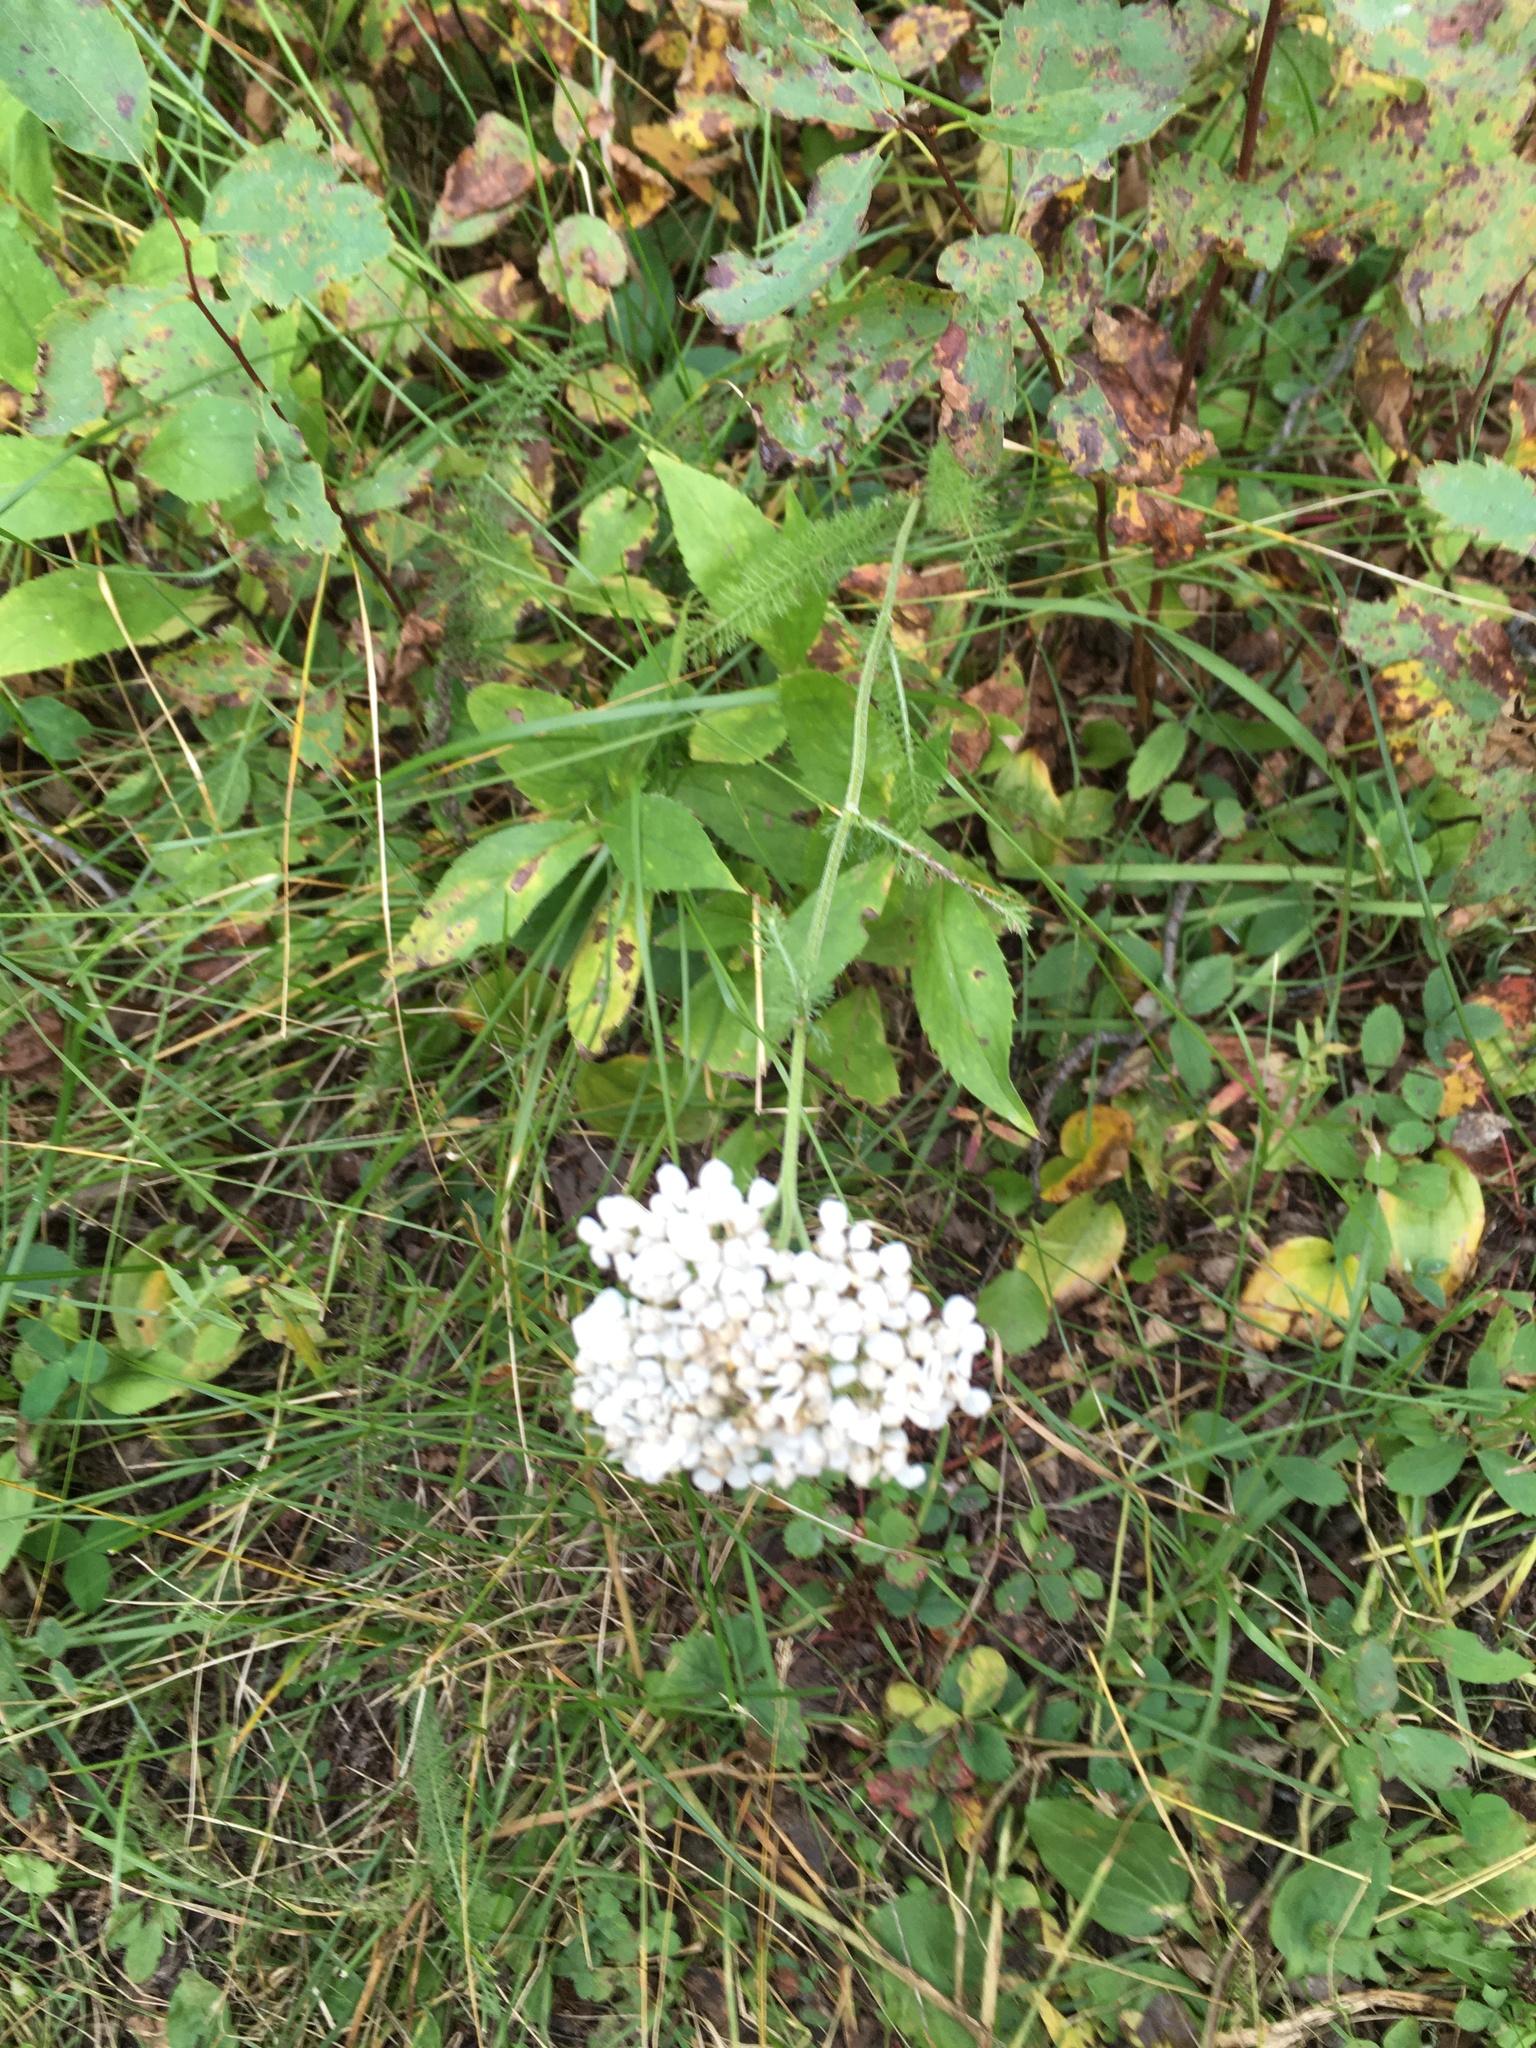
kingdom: Plantae
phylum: Tracheophyta
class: Magnoliopsida
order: Asterales
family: Asteraceae
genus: Achillea
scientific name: Achillea millefolium
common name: Yarrow
